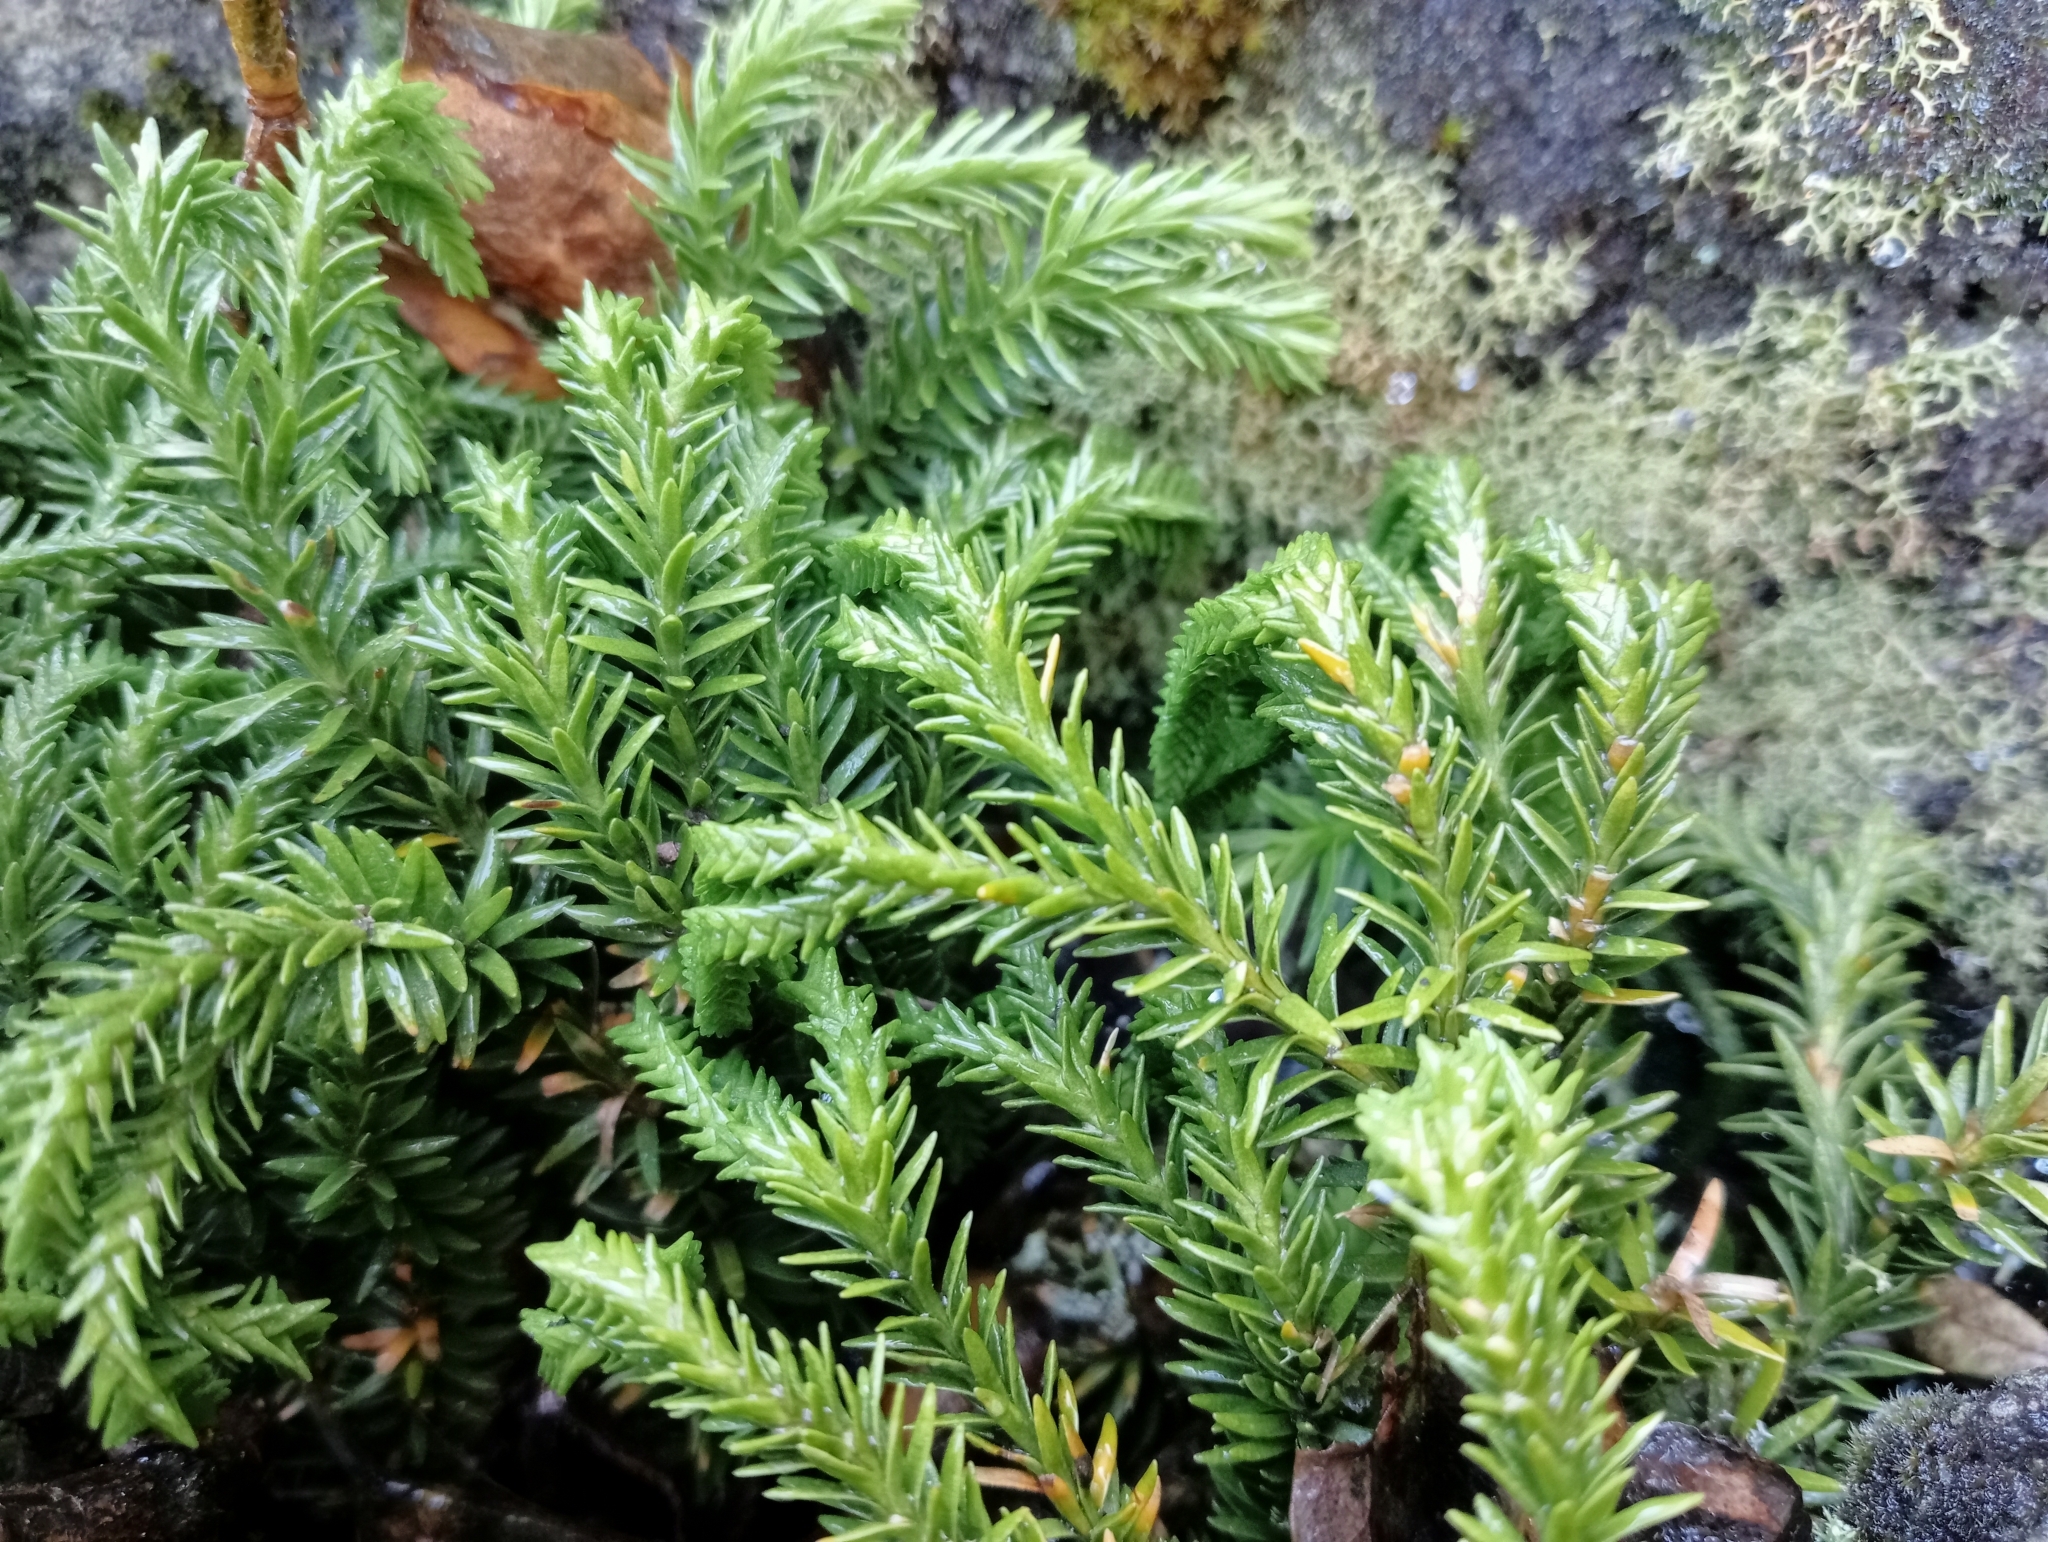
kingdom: Plantae
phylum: Tracheophyta
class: Lycopodiopsida
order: Lycopodiales
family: Lycopodiaceae
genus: Phlegmariurus
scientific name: Phlegmariurus varius
